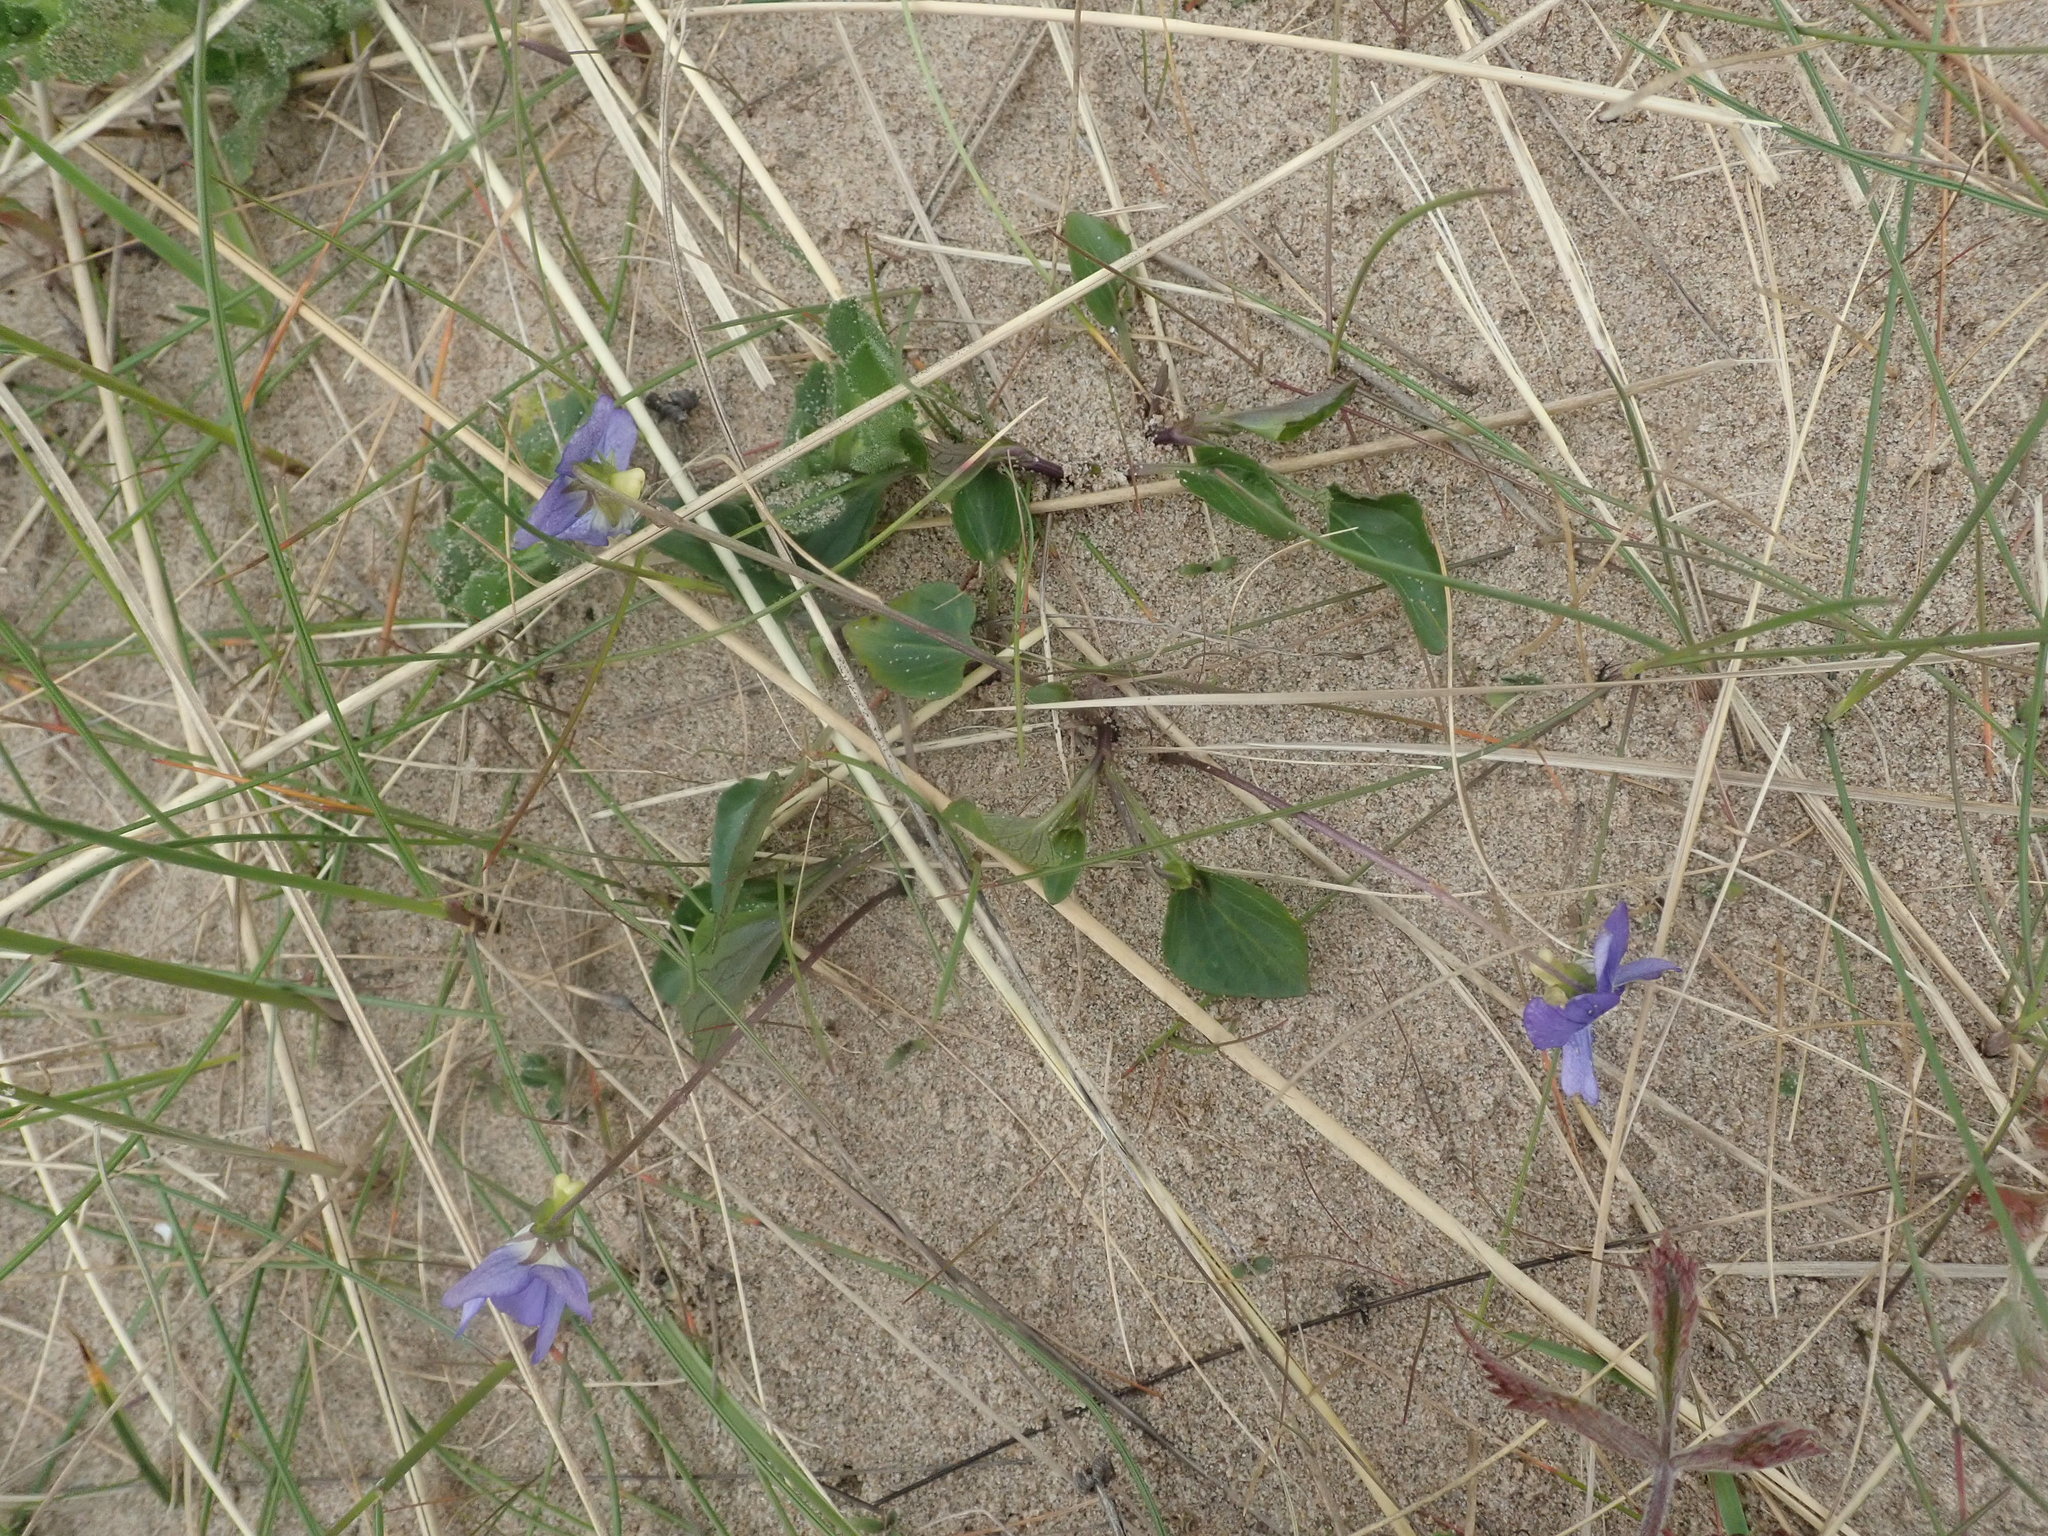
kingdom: Plantae
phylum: Tracheophyta
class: Magnoliopsida
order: Malpighiales
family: Violaceae
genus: Viola
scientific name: Viola canina
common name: Heath dog-violet
